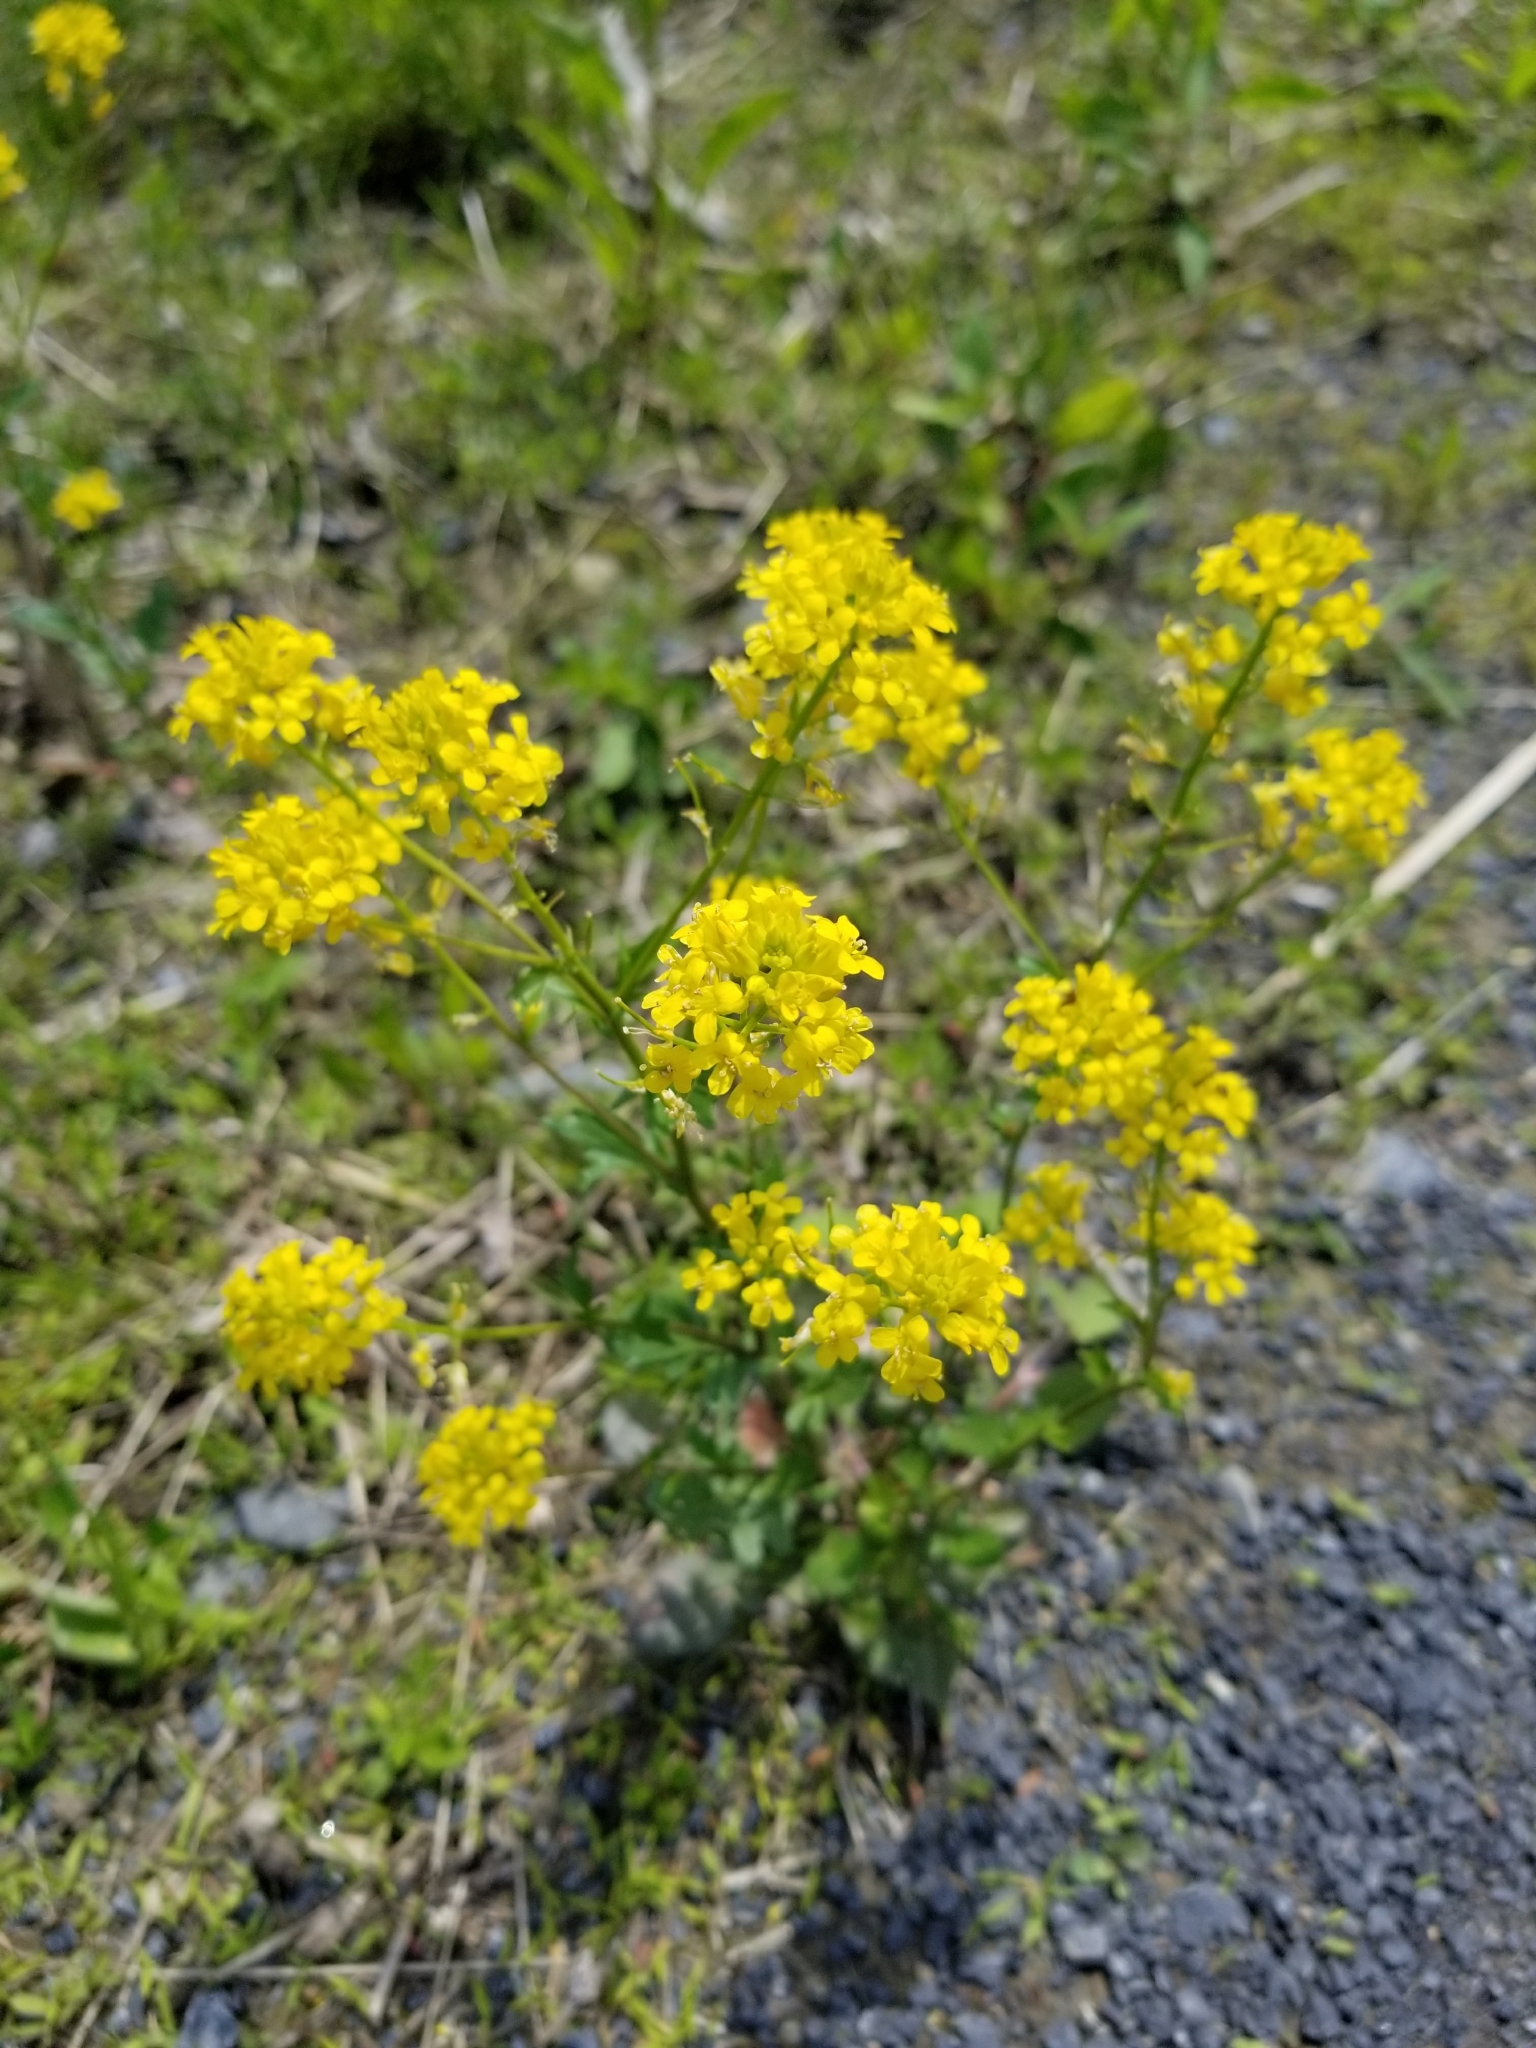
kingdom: Plantae
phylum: Tracheophyta
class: Magnoliopsida
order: Brassicales
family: Brassicaceae
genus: Barbarea
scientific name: Barbarea vulgaris
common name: Cressy-greens
